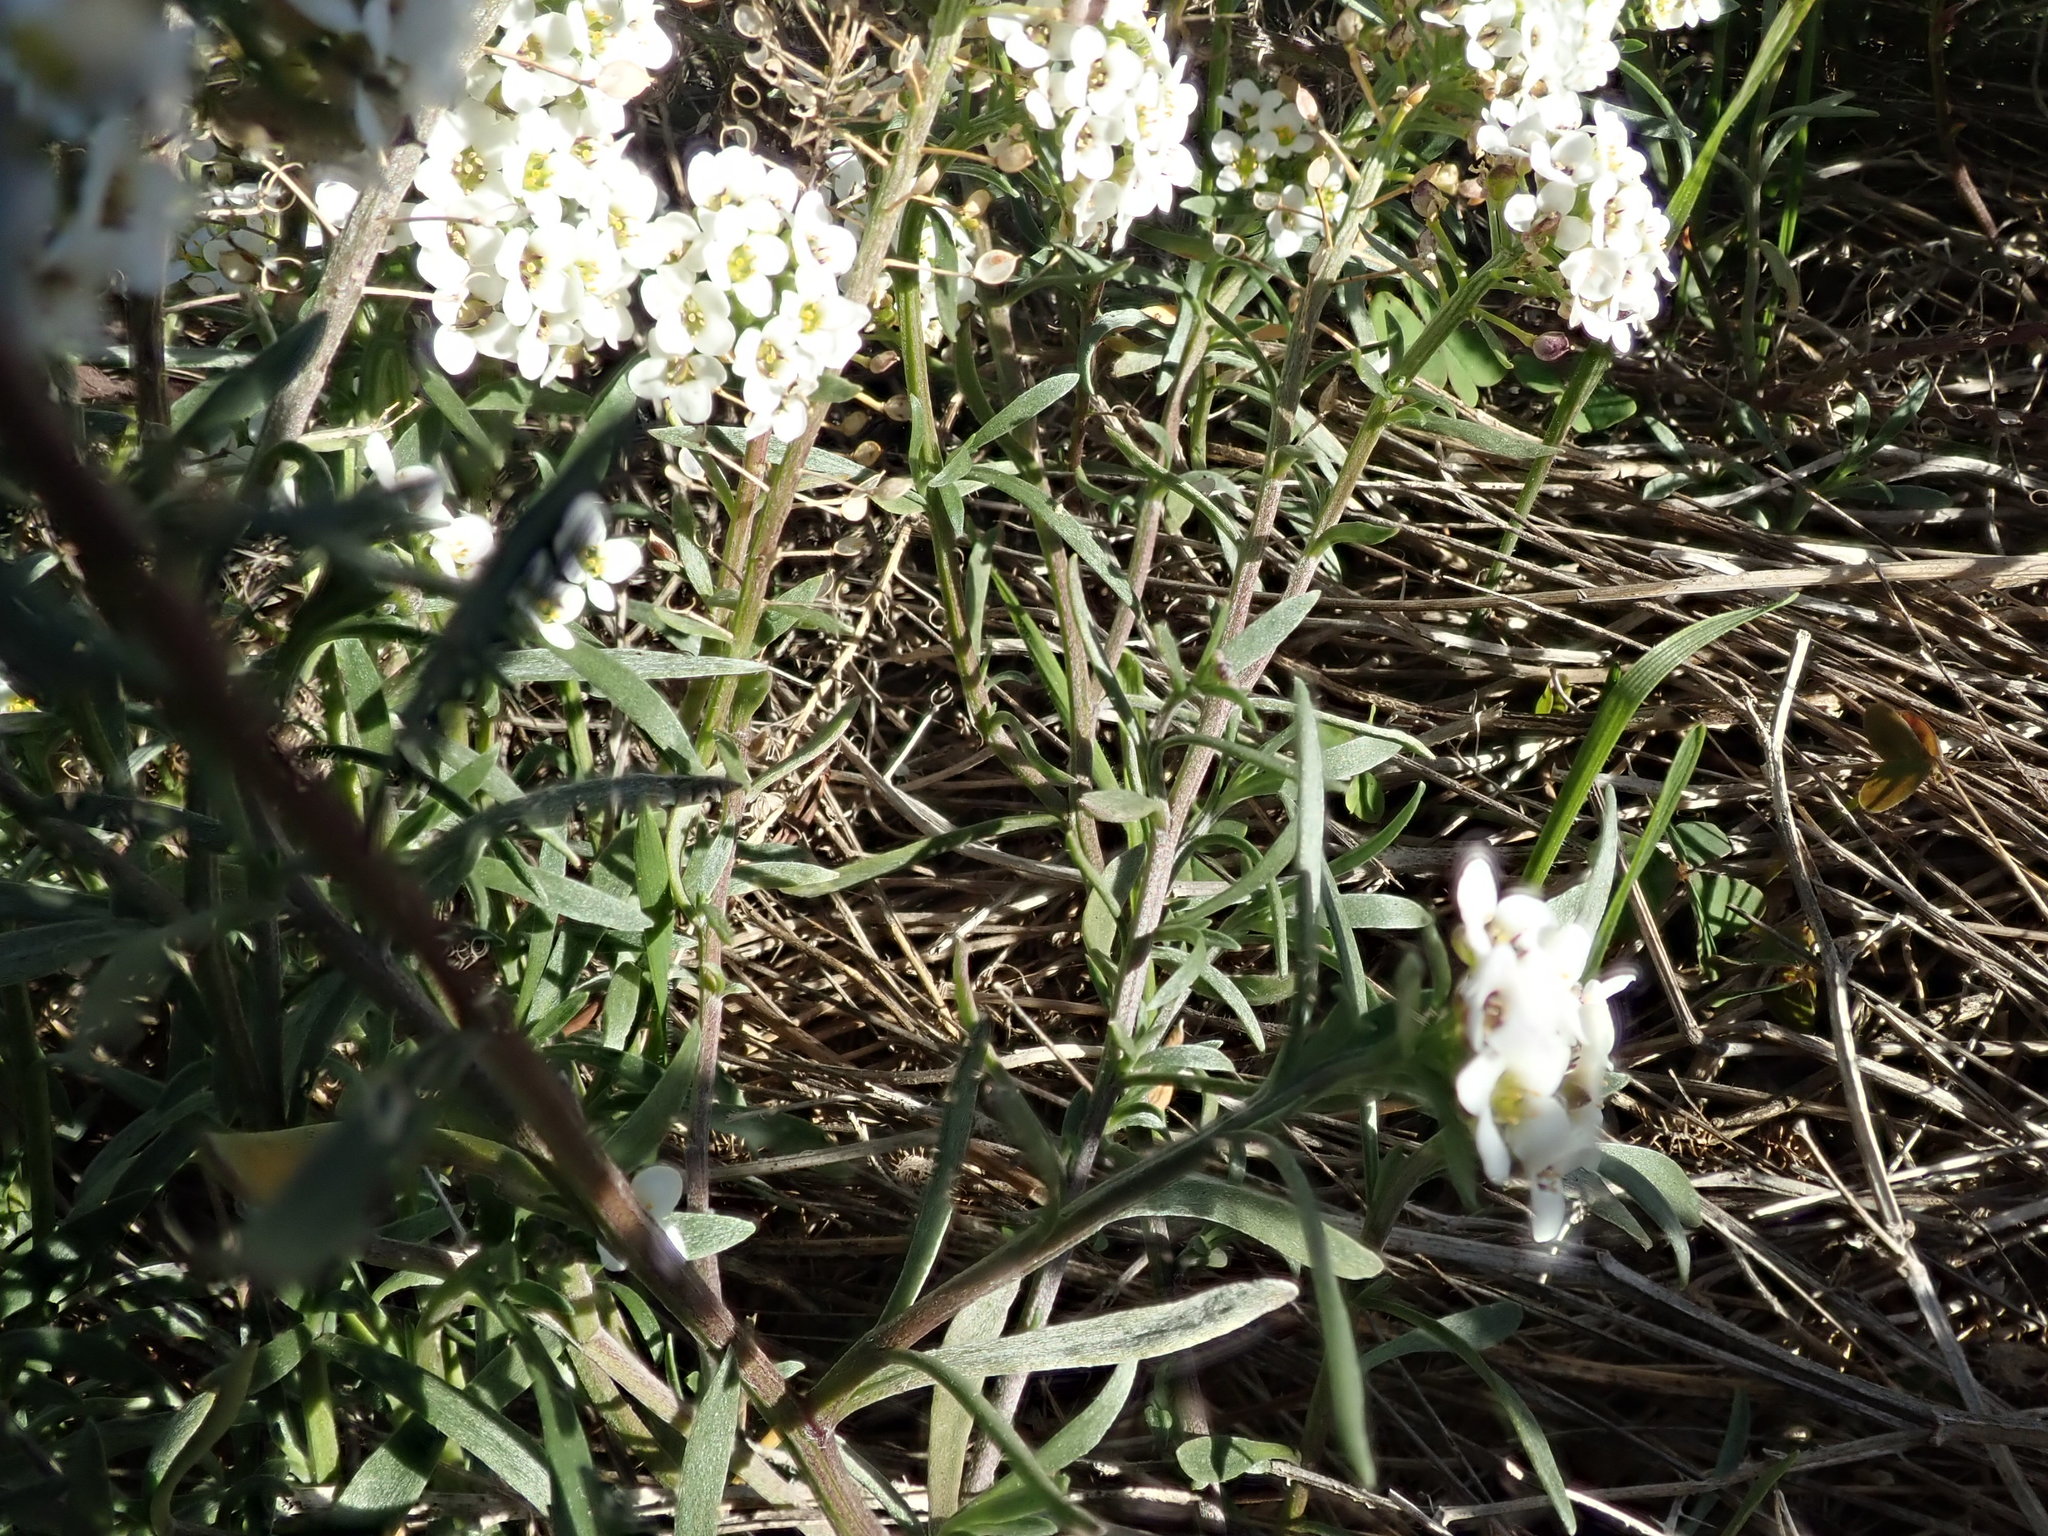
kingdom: Plantae
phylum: Tracheophyta
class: Magnoliopsida
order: Brassicales
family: Brassicaceae
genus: Lobularia
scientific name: Lobularia maritima
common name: Sweet alison
